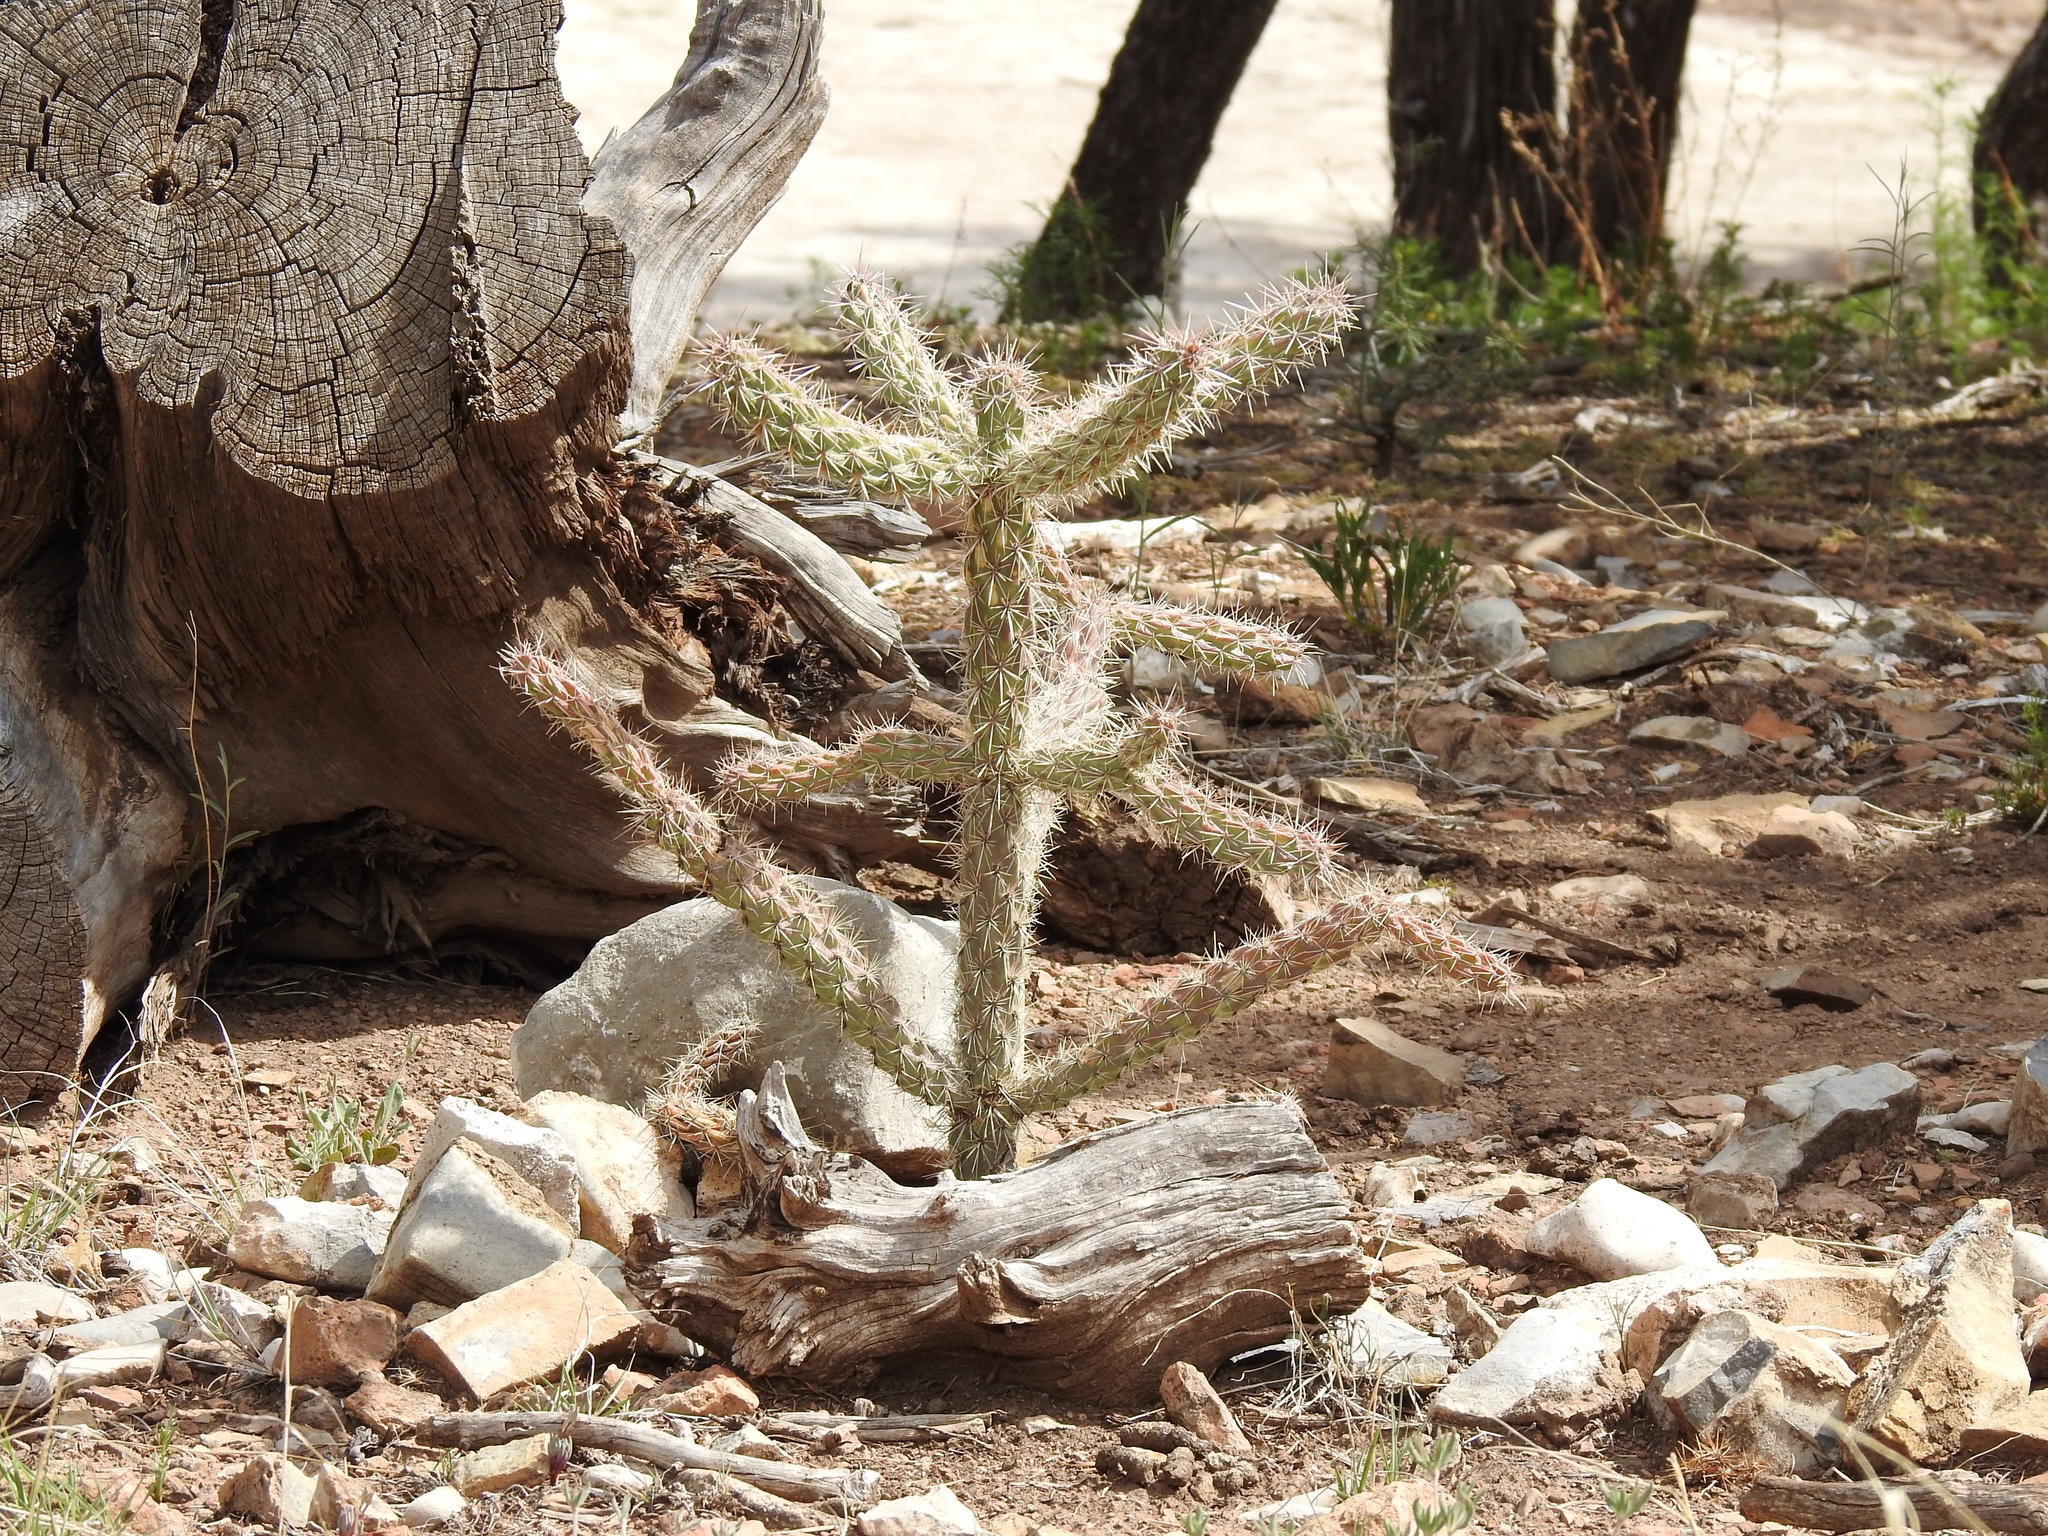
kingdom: Plantae
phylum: Tracheophyta
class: Magnoliopsida
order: Caryophyllales
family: Cactaceae
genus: Cylindropuntia
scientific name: Cylindropuntia imbricata
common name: Candelabrum cactus
